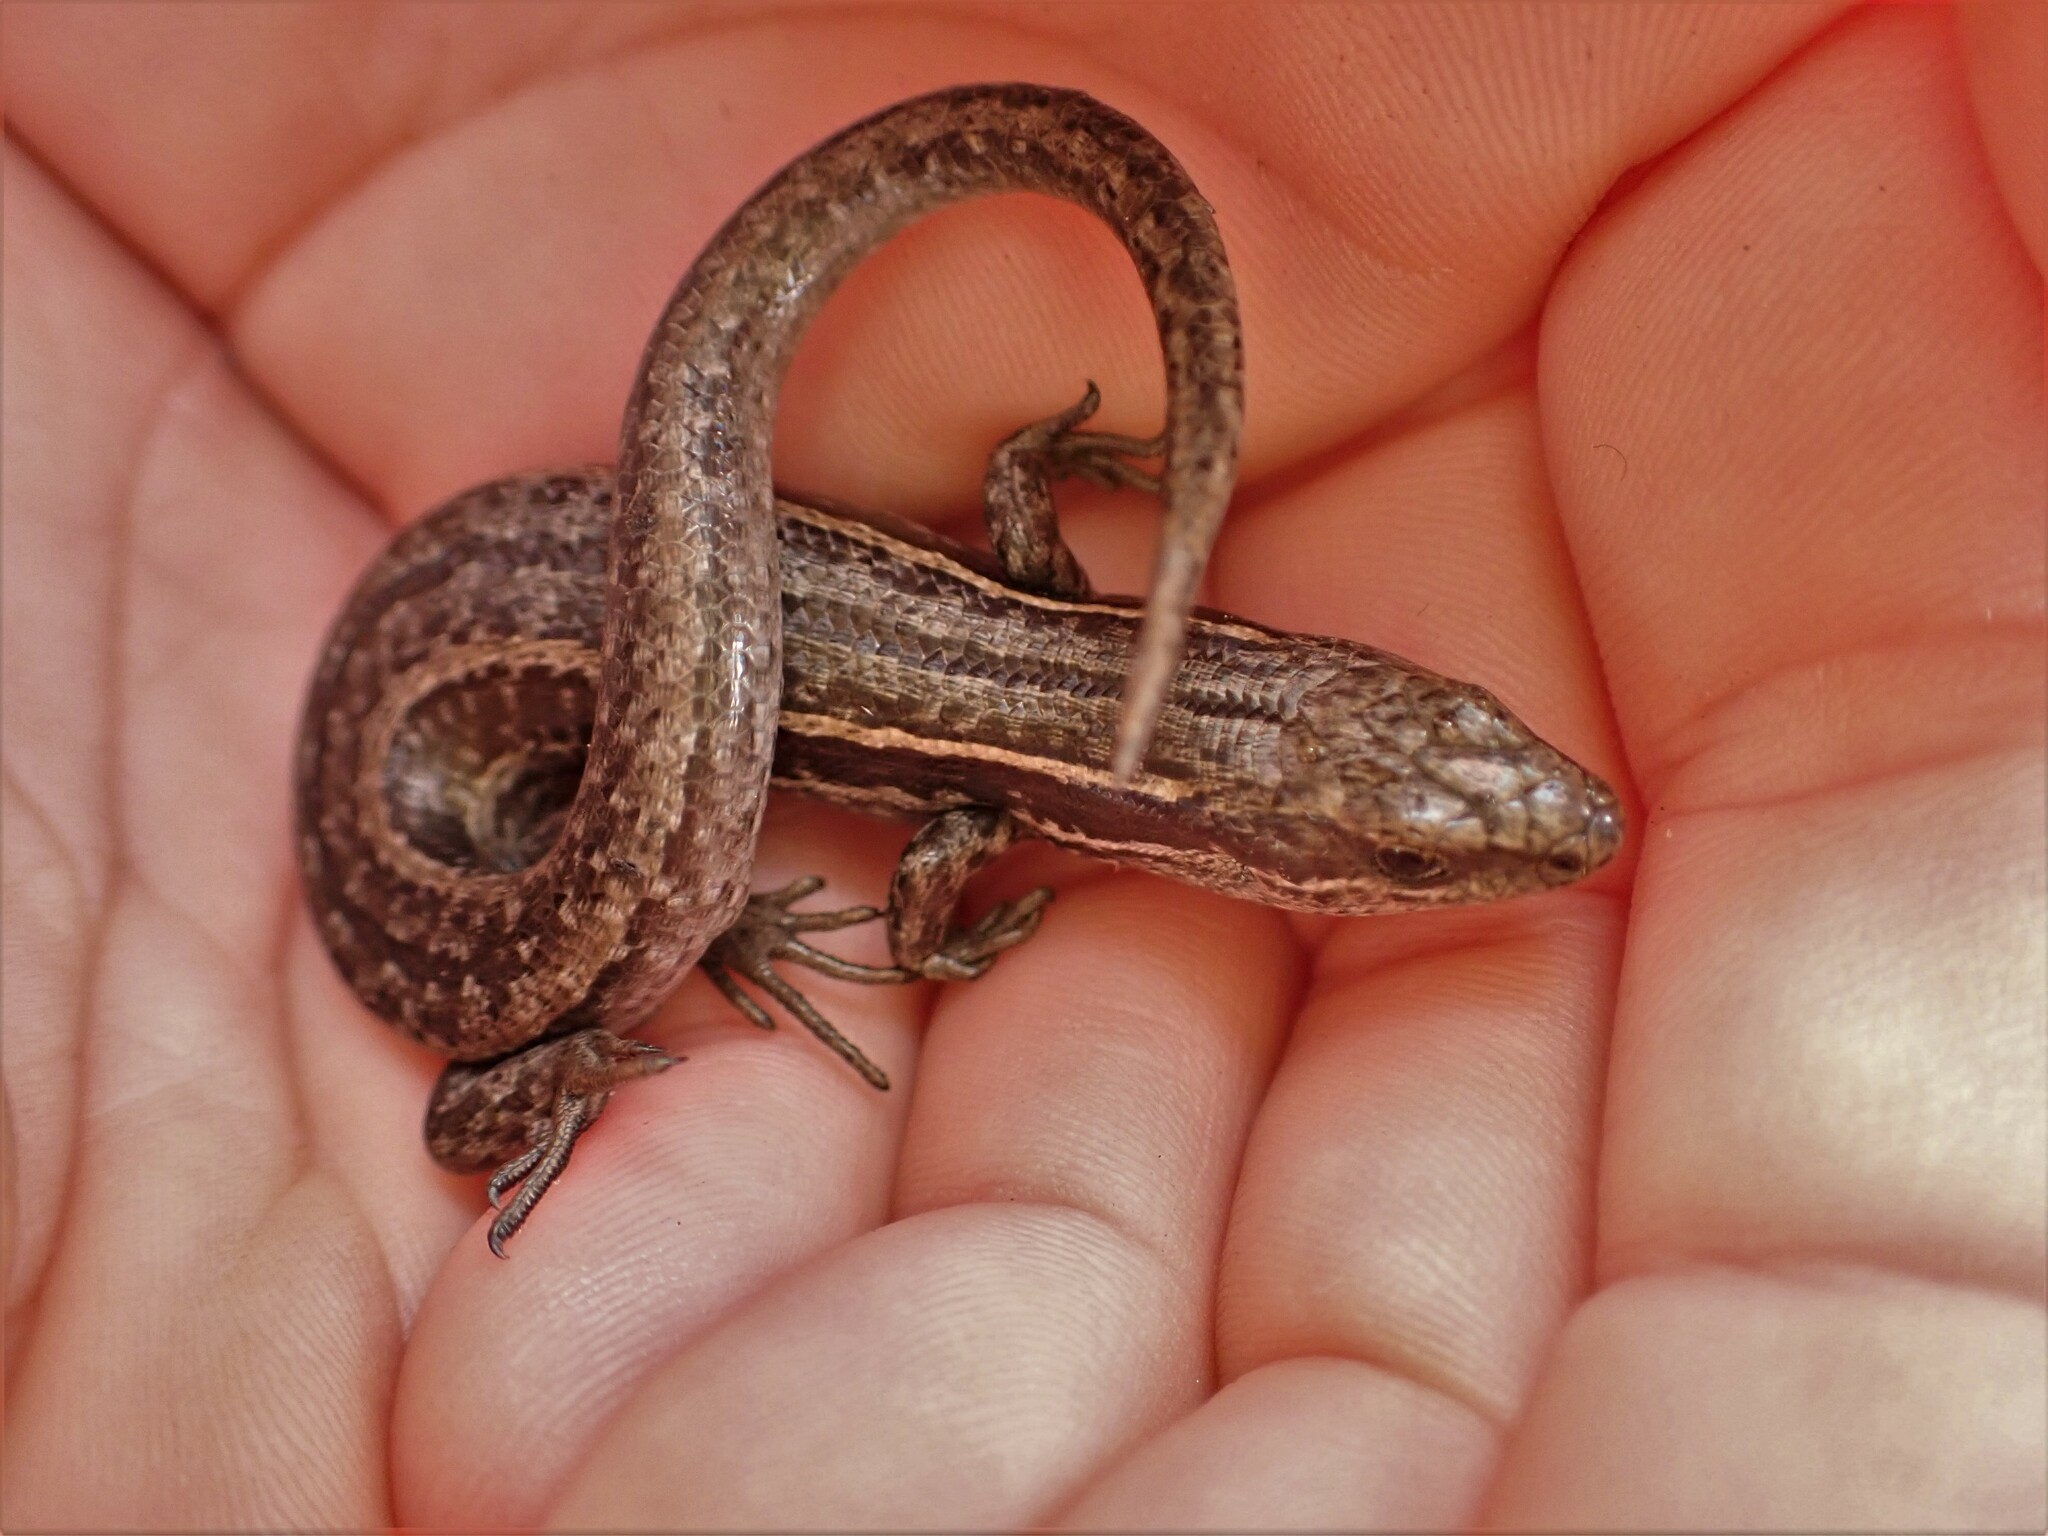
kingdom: Animalia
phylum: Chordata
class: Squamata
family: Scincidae
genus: Oligosoma
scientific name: Oligosoma maccanni
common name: Mccann’s skink
